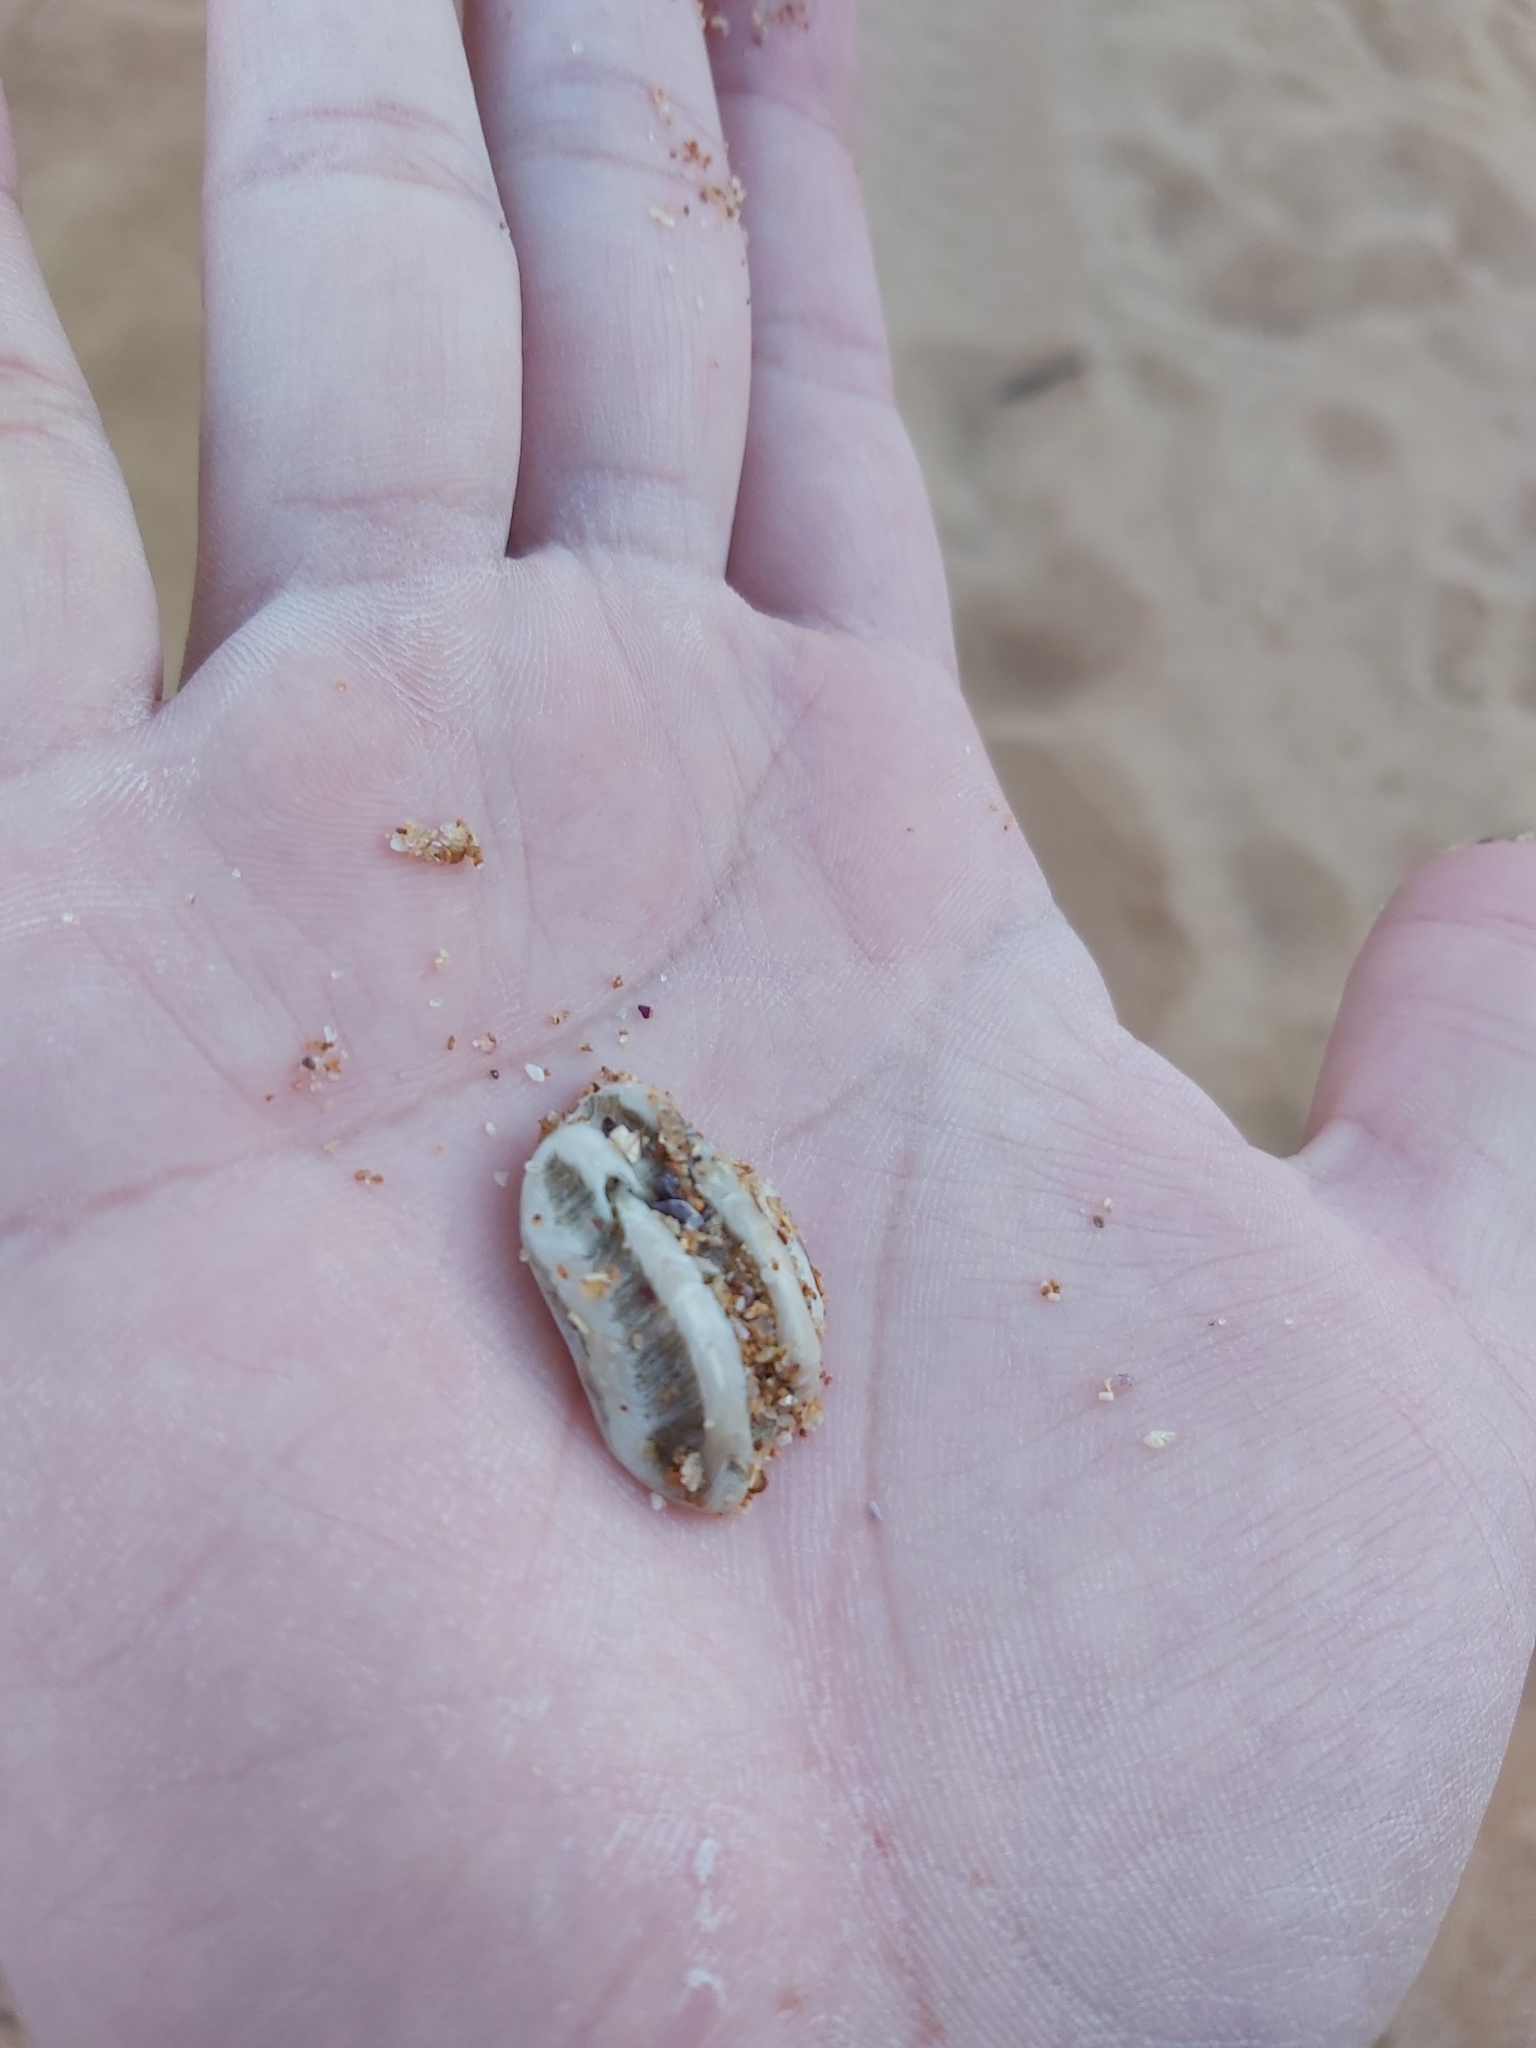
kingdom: Animalia
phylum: Mollusca
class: Gastropoda
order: Neogastropoda
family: Muricidae
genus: Dicathais
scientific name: Dicathais orbita
